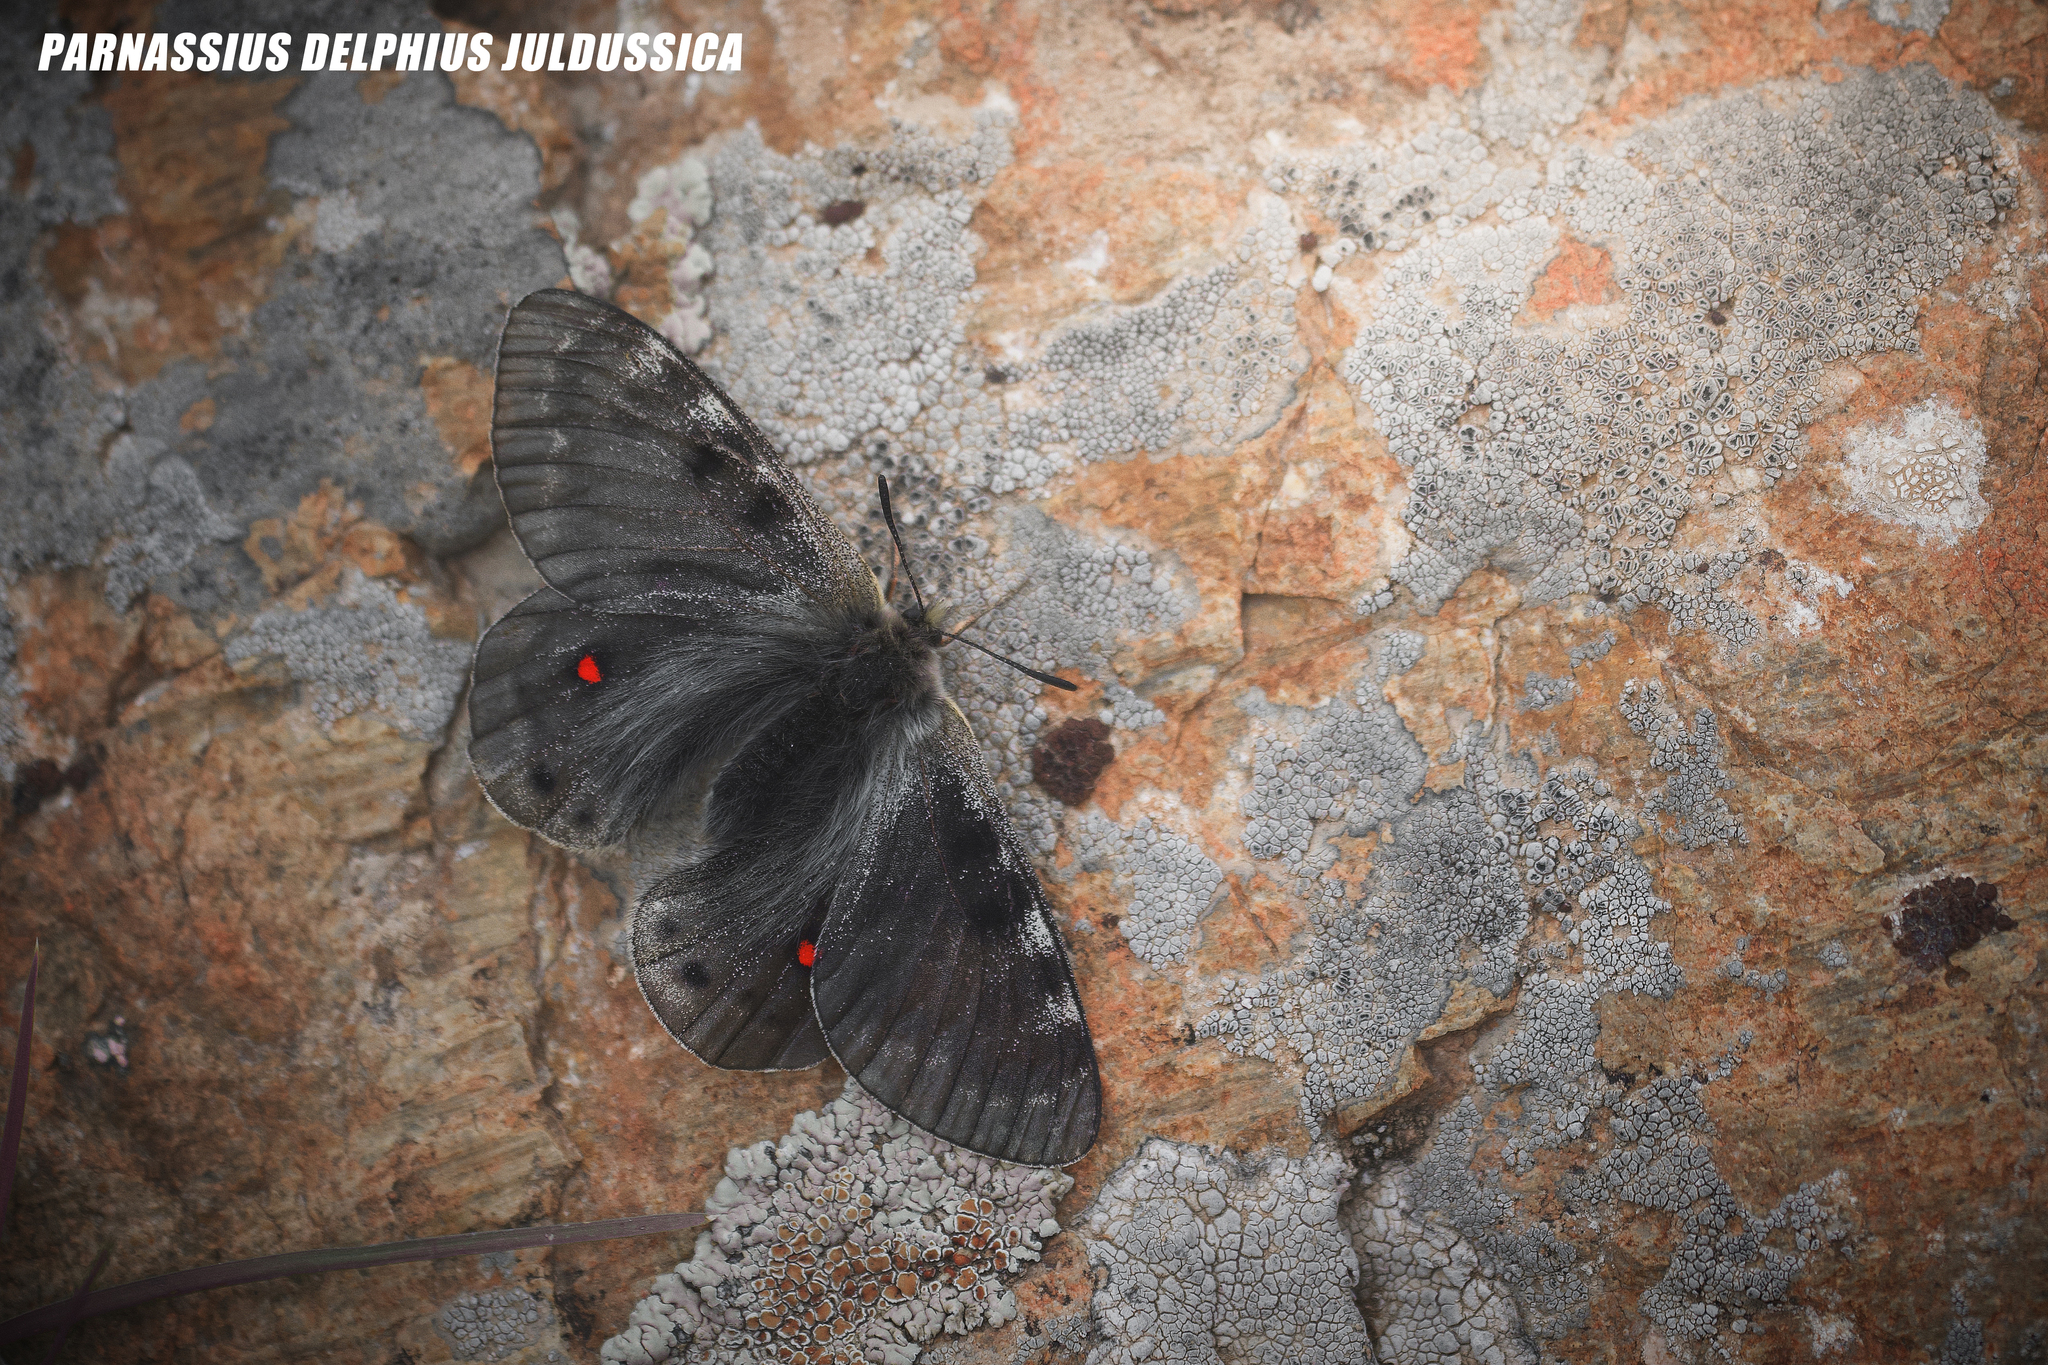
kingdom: Animalia
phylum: Arthropoda
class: Insecta
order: Lepidoptera
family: Papilionidae
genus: Parnassius
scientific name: Parnassius delphius
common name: Banded apollo
